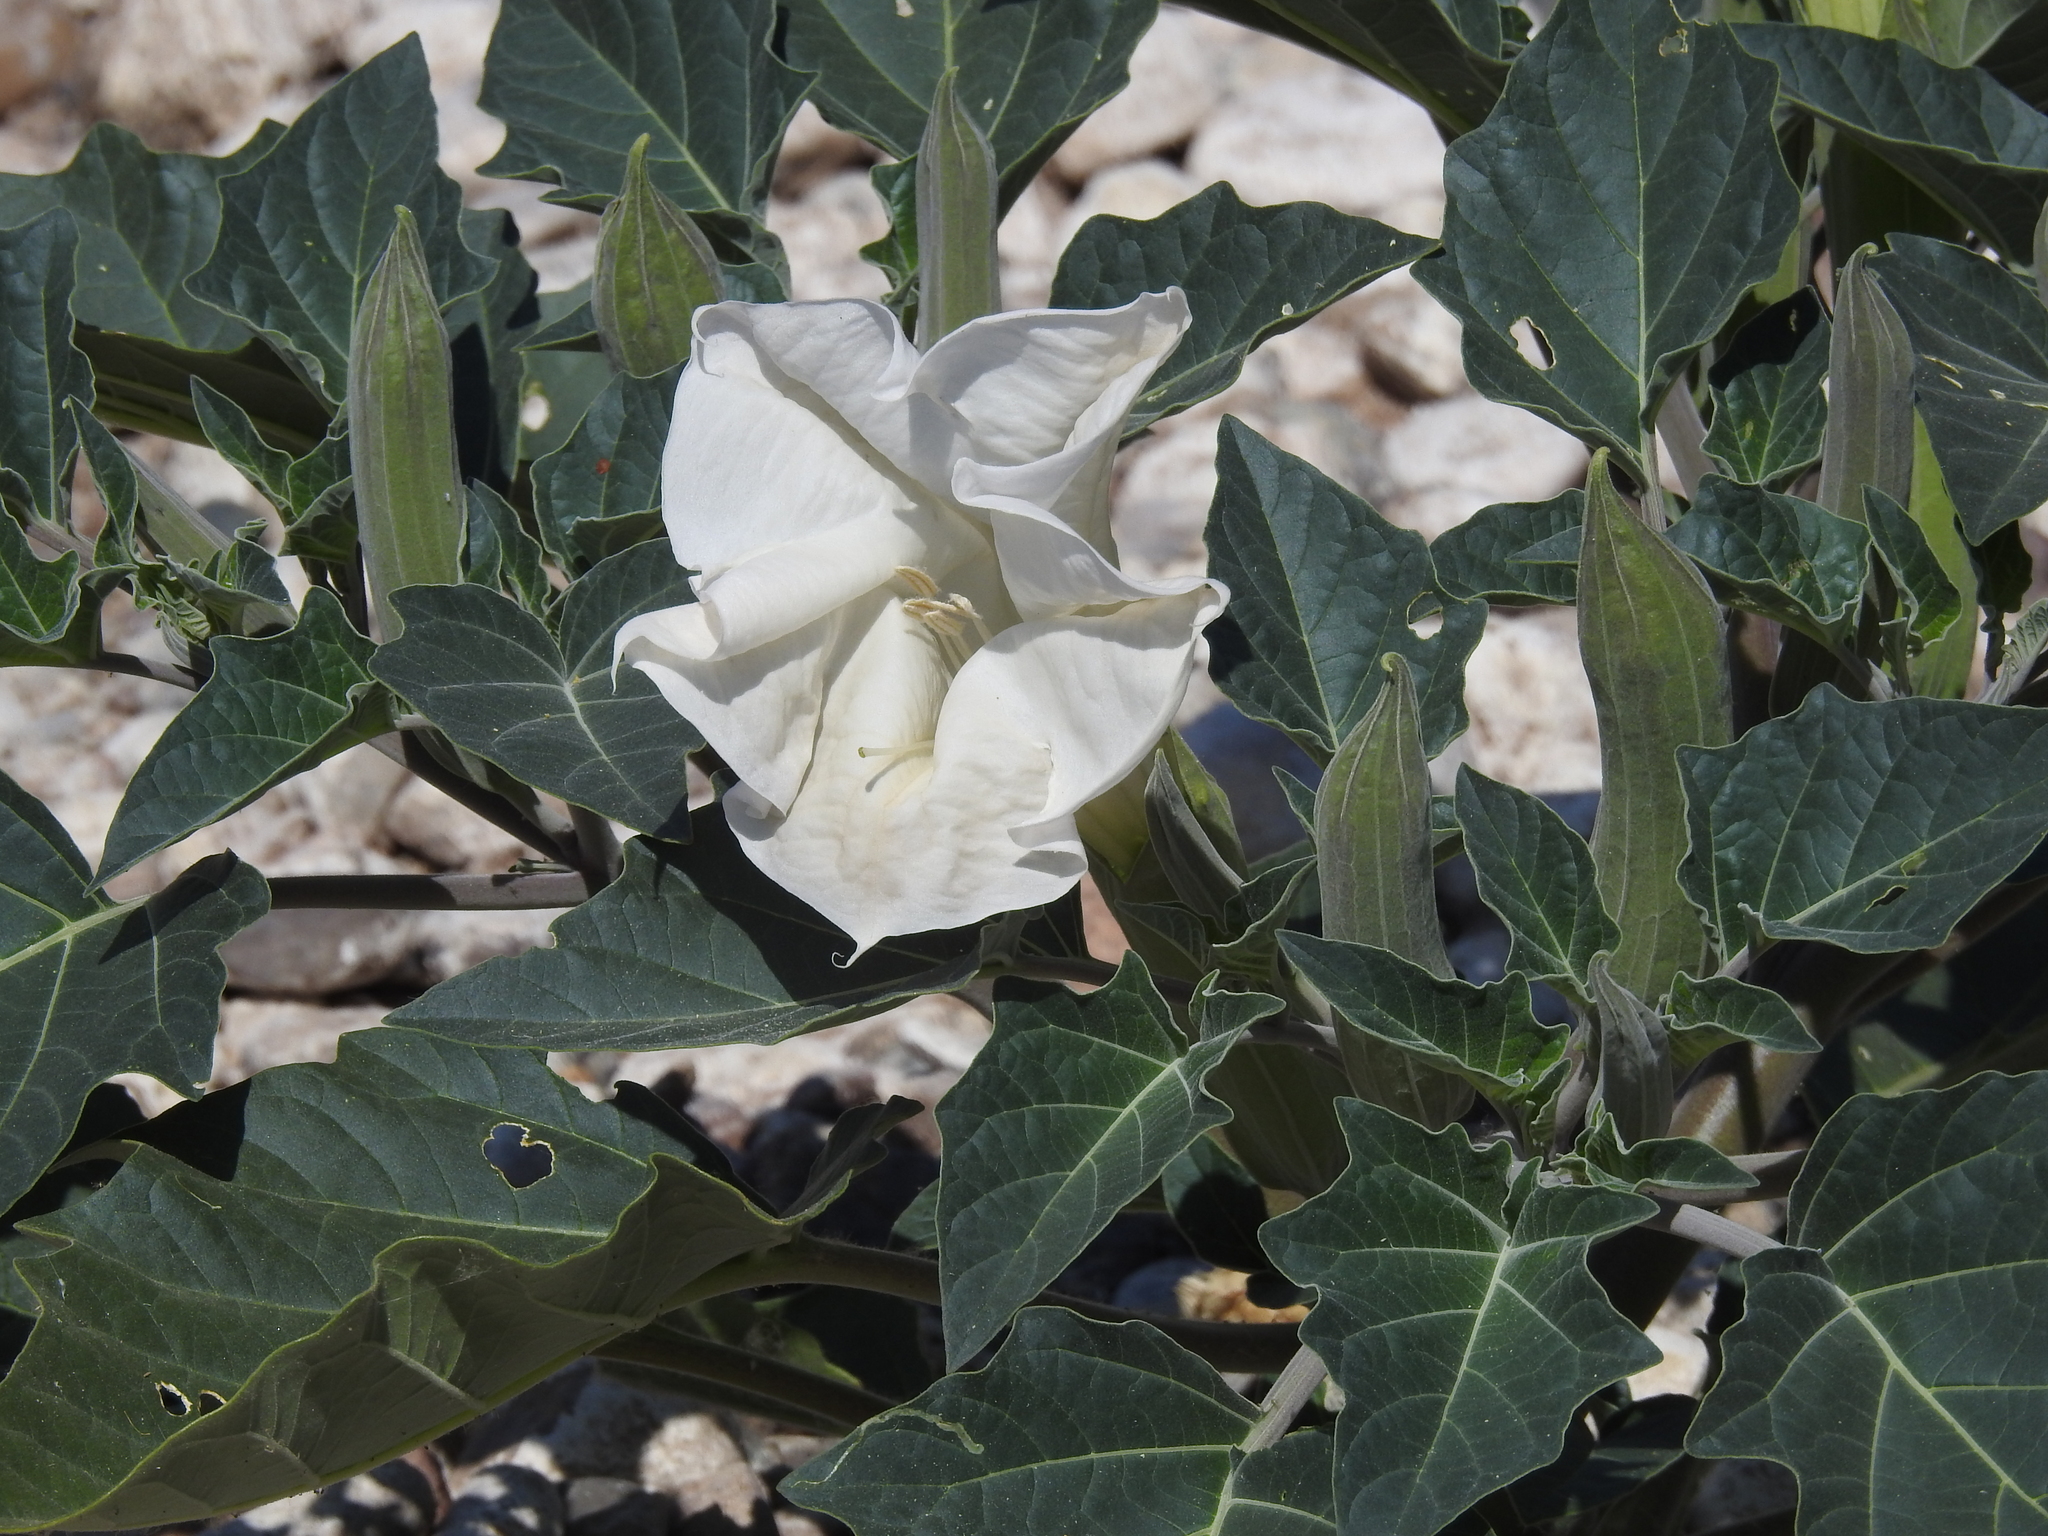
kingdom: Plantae
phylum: Tracheophyta
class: Magnoliopsida
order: Solanales
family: Solanaceae
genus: Datura
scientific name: Datura wrightii
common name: Sacred thorn-apple
